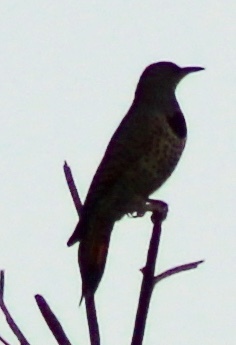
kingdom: Animalia
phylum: Chordata
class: Aves
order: Piciformes
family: Picidae
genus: Colaptes
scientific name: Colaptes auratus
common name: Northern flicker
